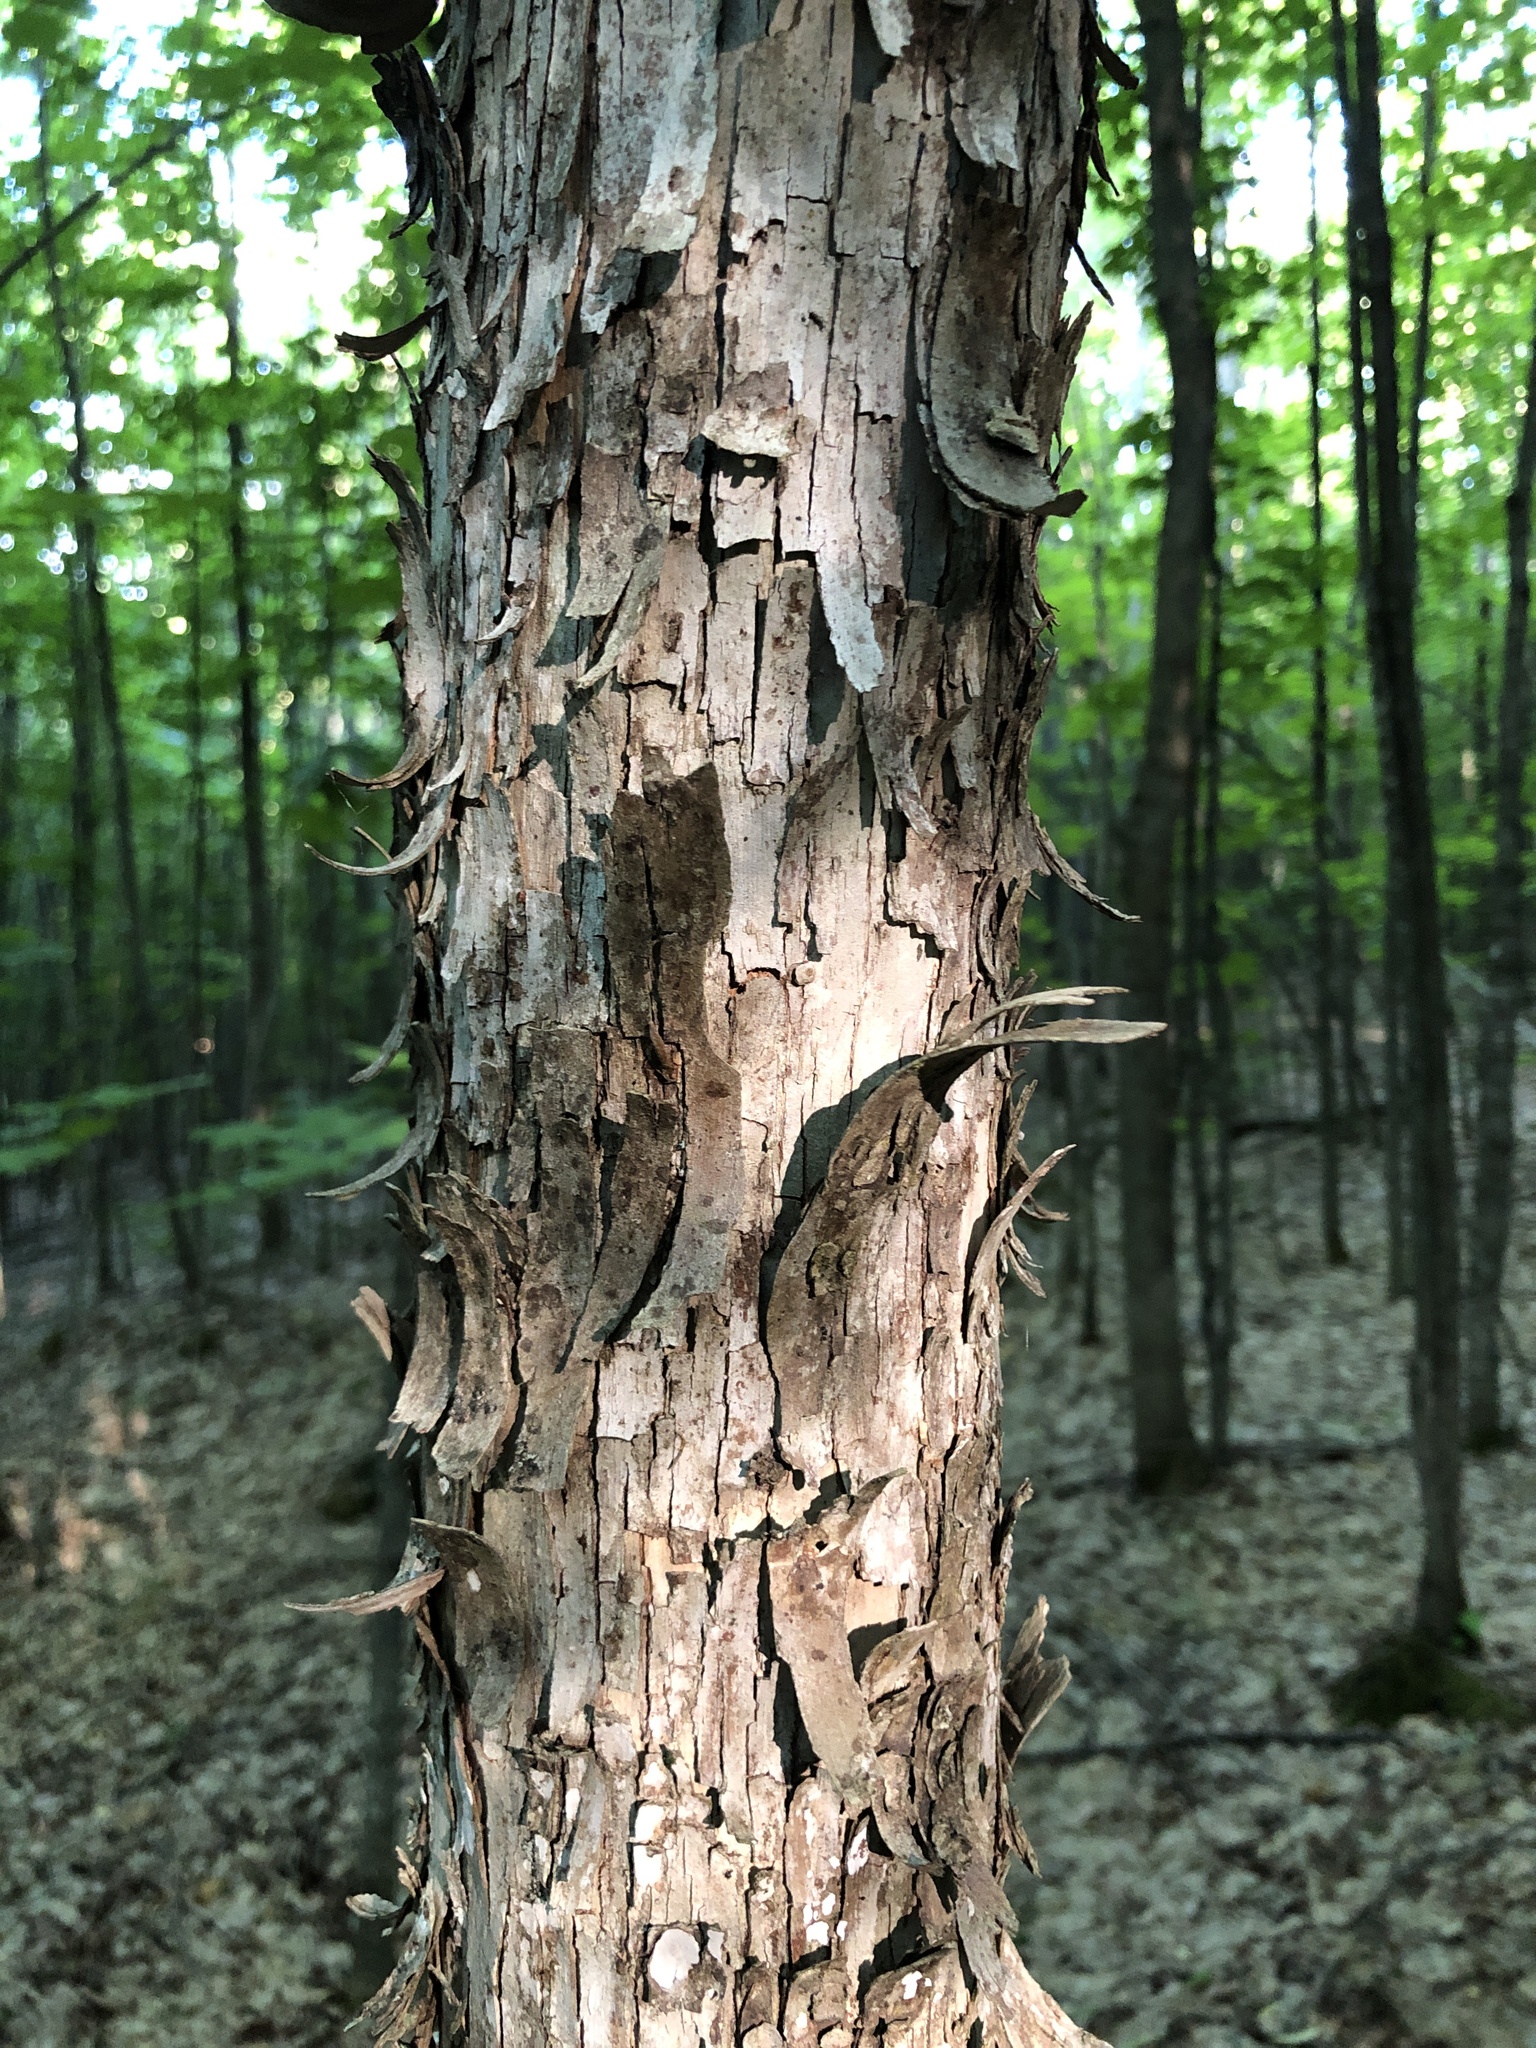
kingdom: Plantae
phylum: Tracheophyta
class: Magnoliopsida
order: Fagales
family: Betulaceae
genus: Ostrya
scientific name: Ostrya virginiana
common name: Ironwood
